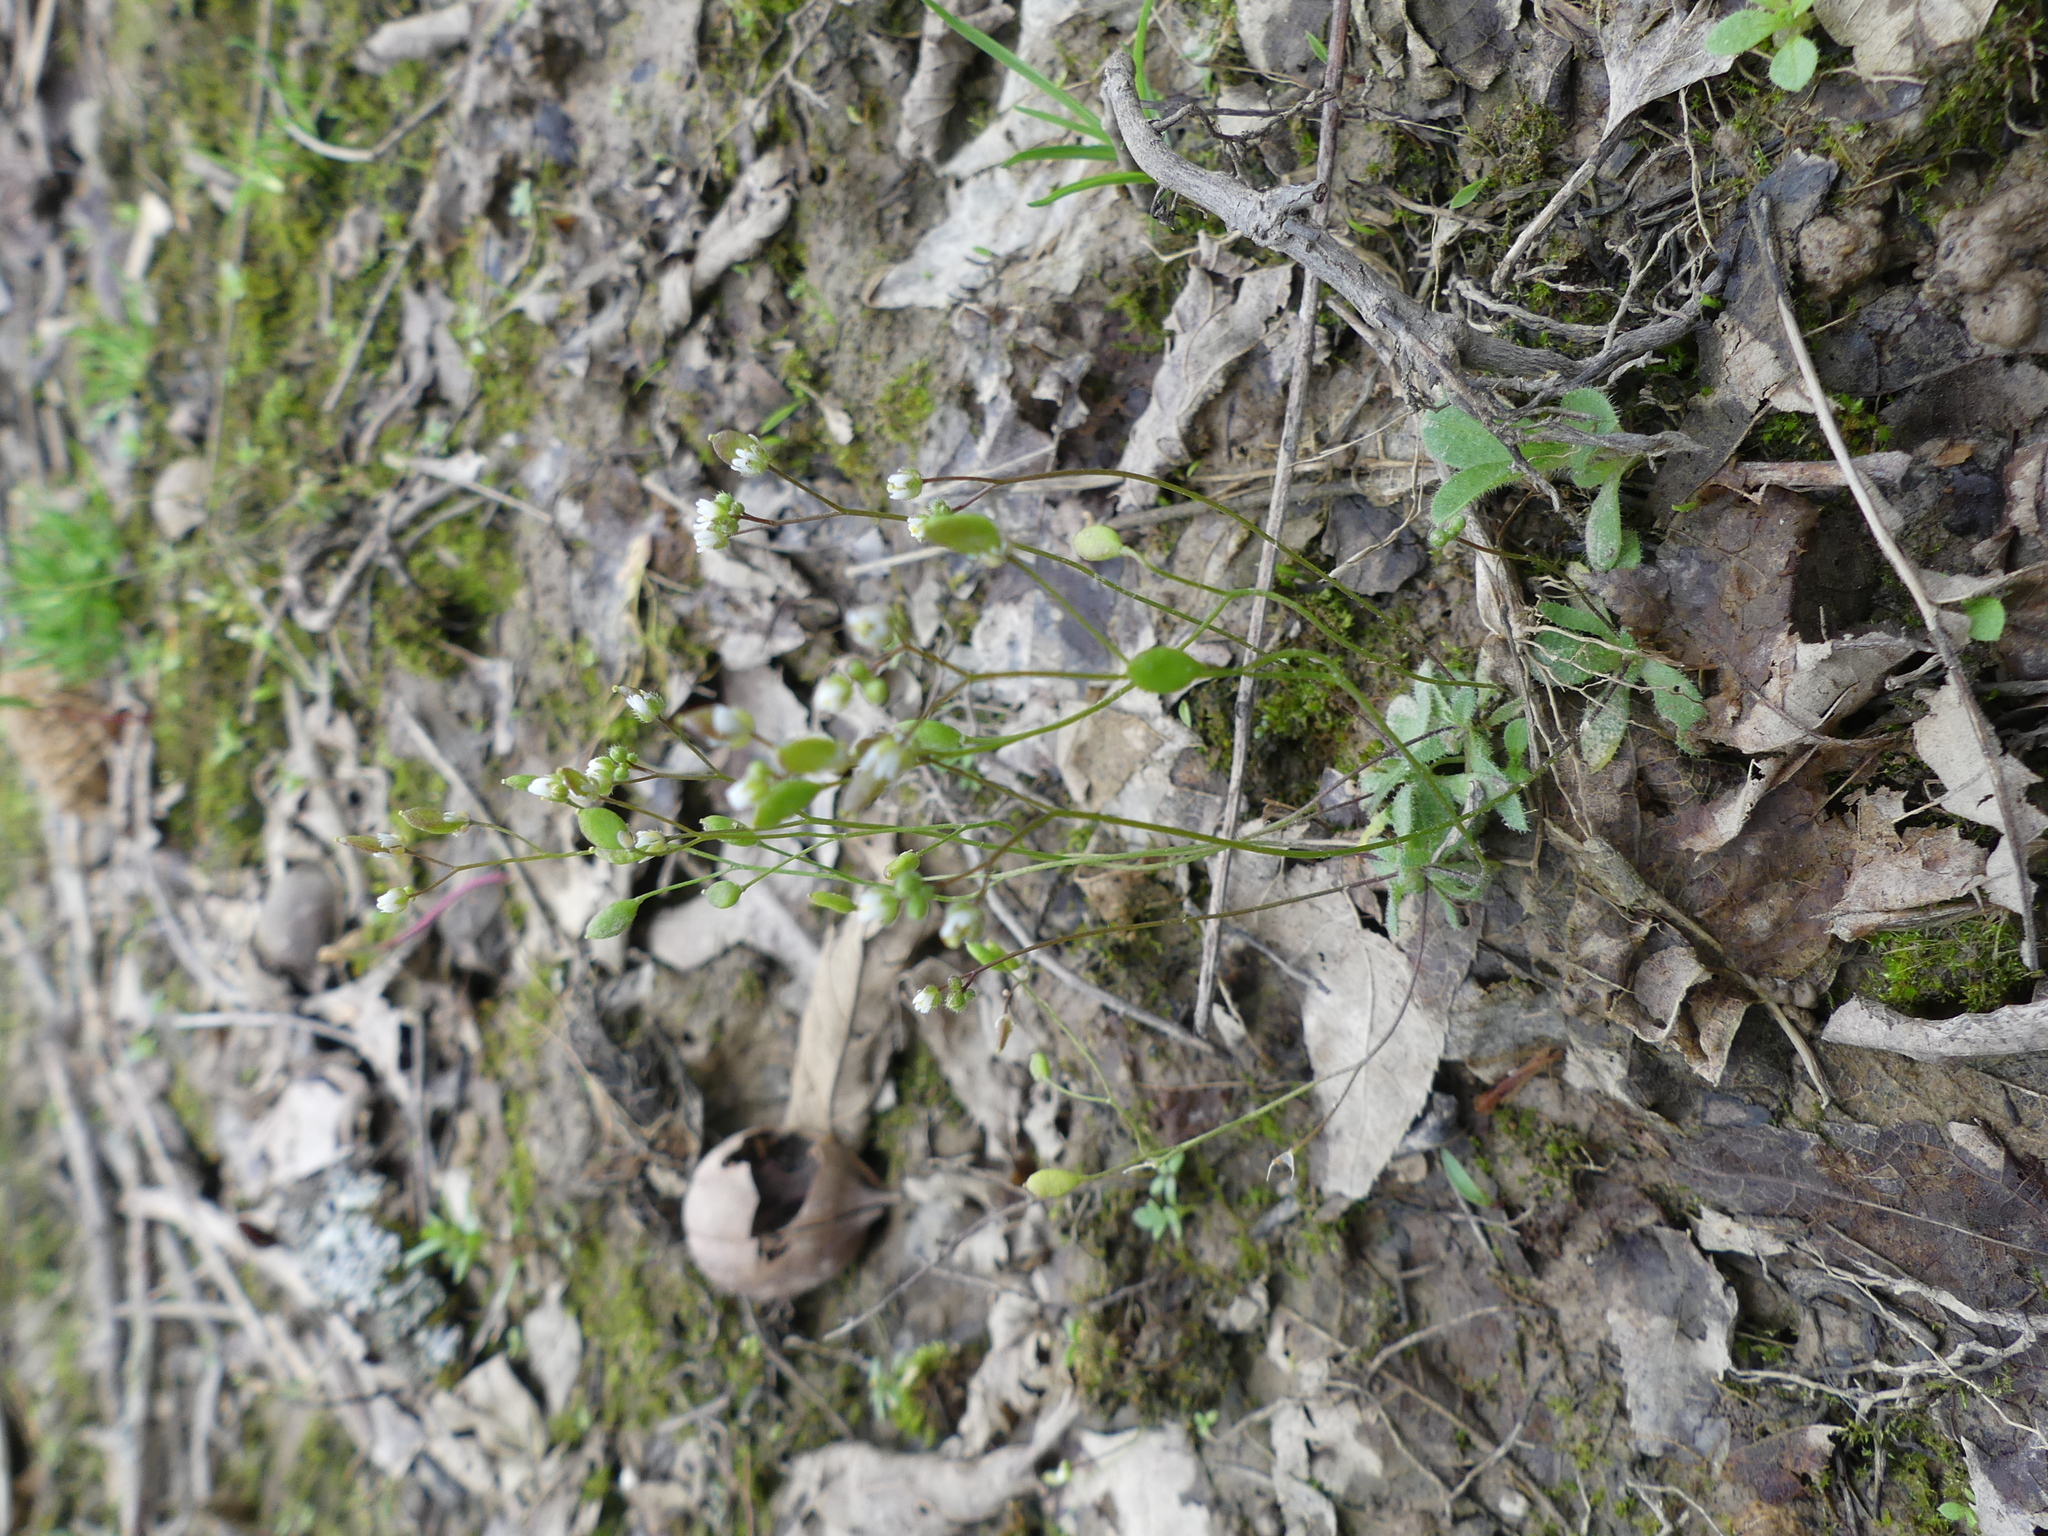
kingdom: Plantae
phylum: Tracheophyta
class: Magnoliopsida
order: Brassicales
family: Brassicaceae
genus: Draba
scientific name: Draba verna
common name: Spring draba
